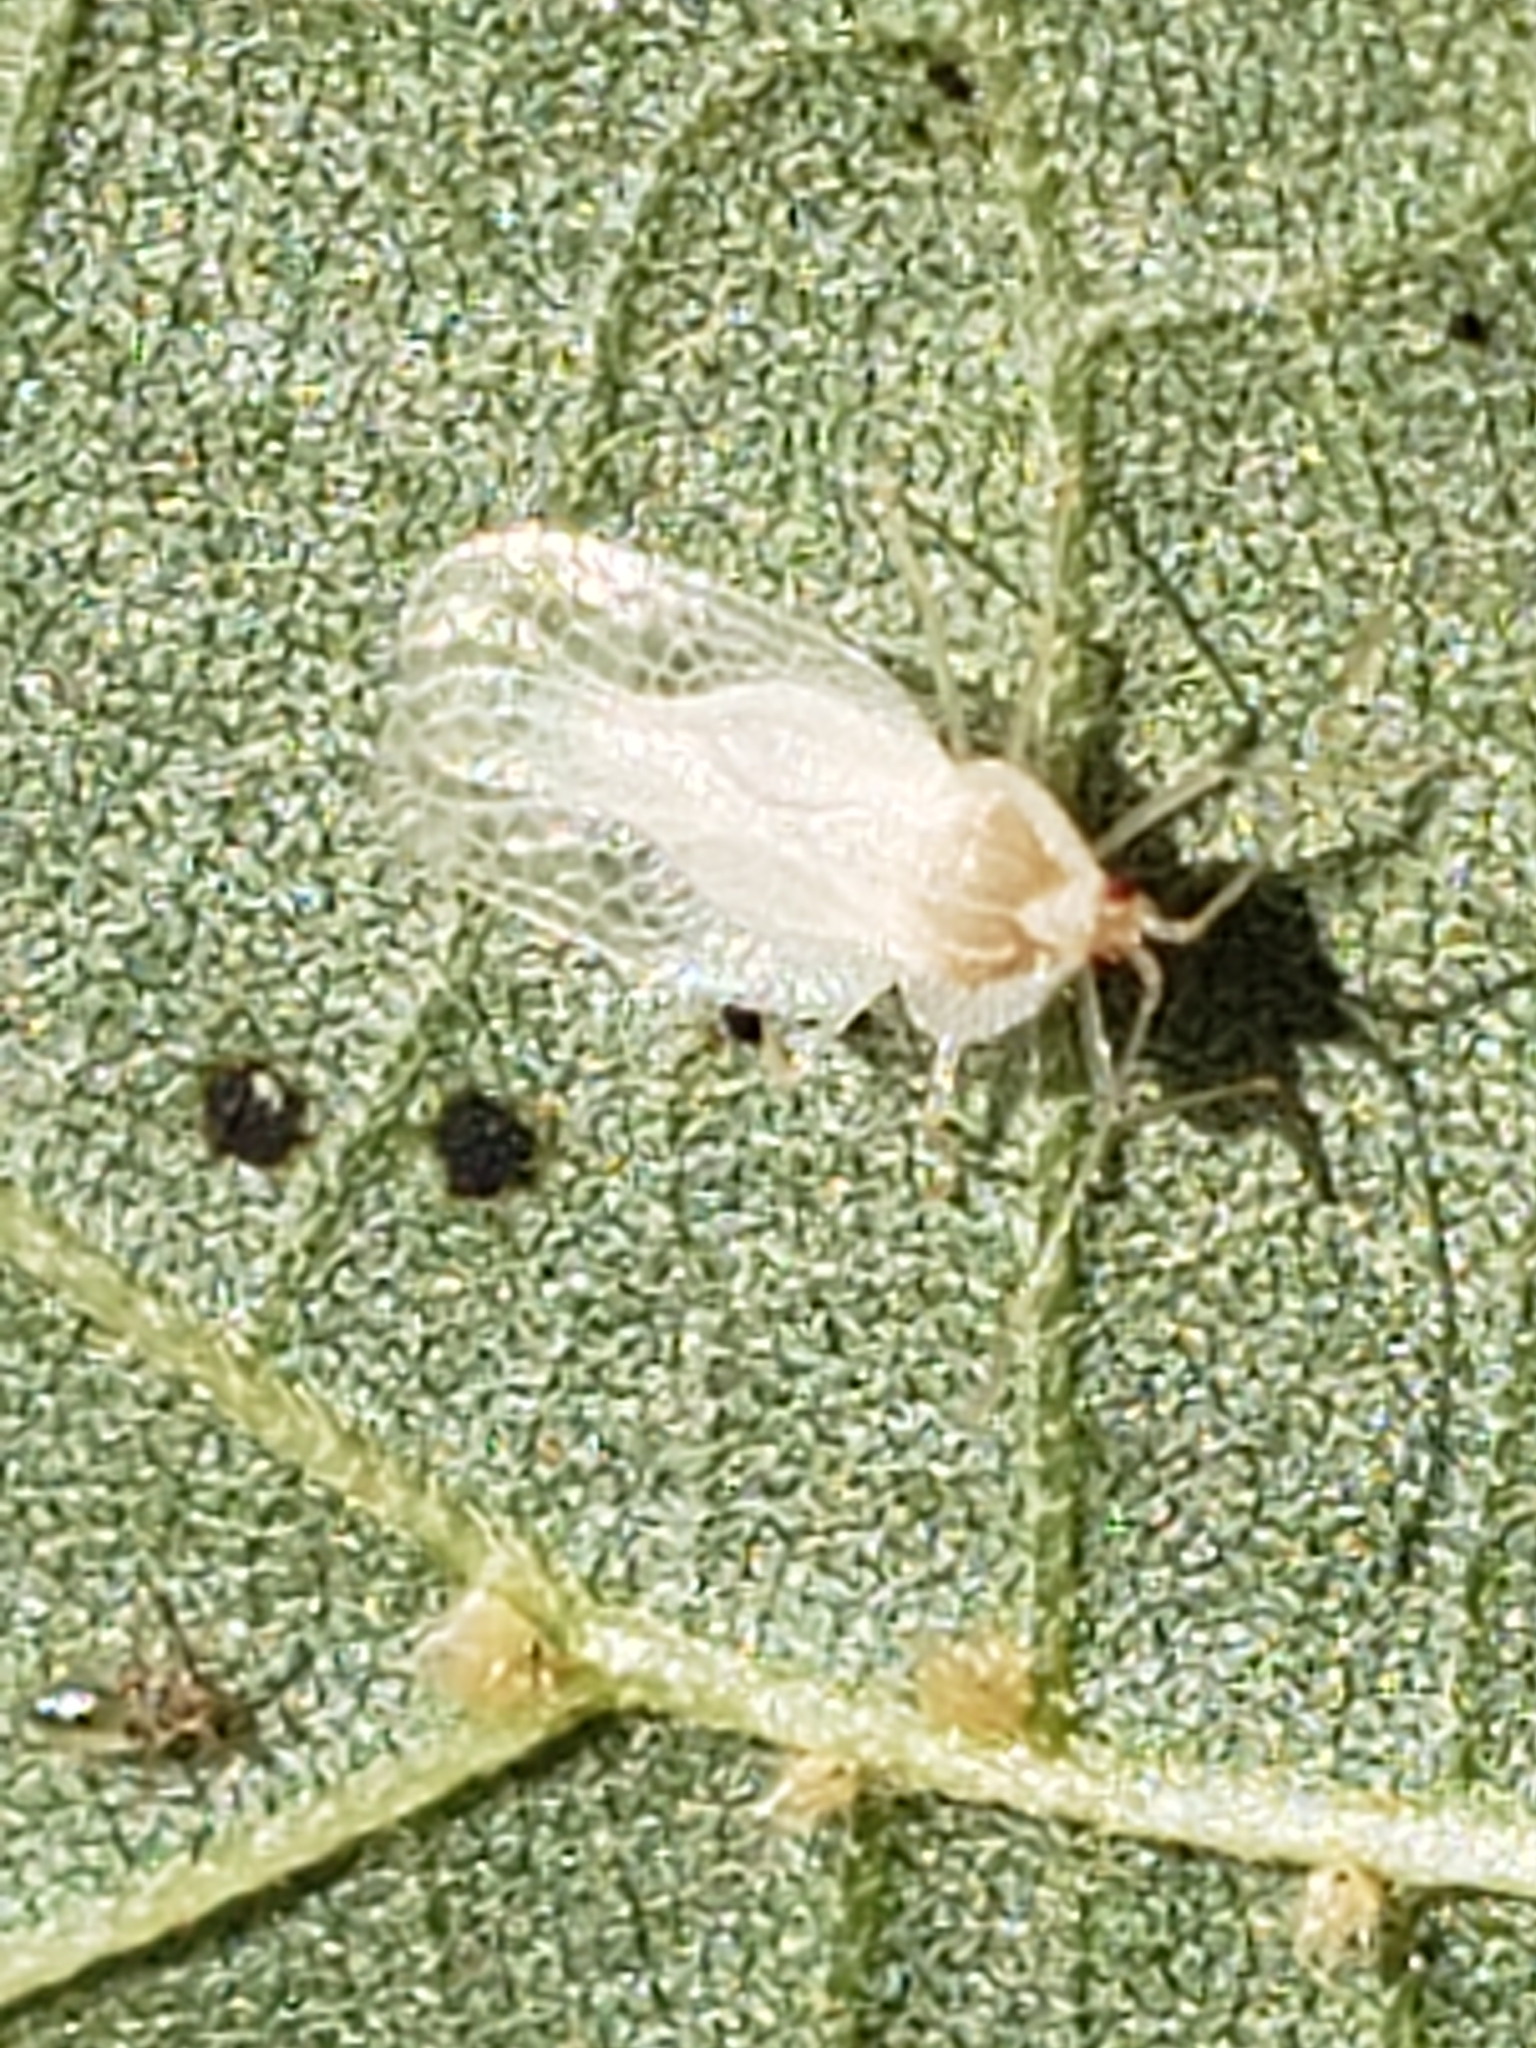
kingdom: Animalia
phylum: Arthropoda
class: Insecta
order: Hemiptera
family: Tingidae
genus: Gargaphia
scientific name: Gargaphia tiliae
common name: Basswood lace bug
